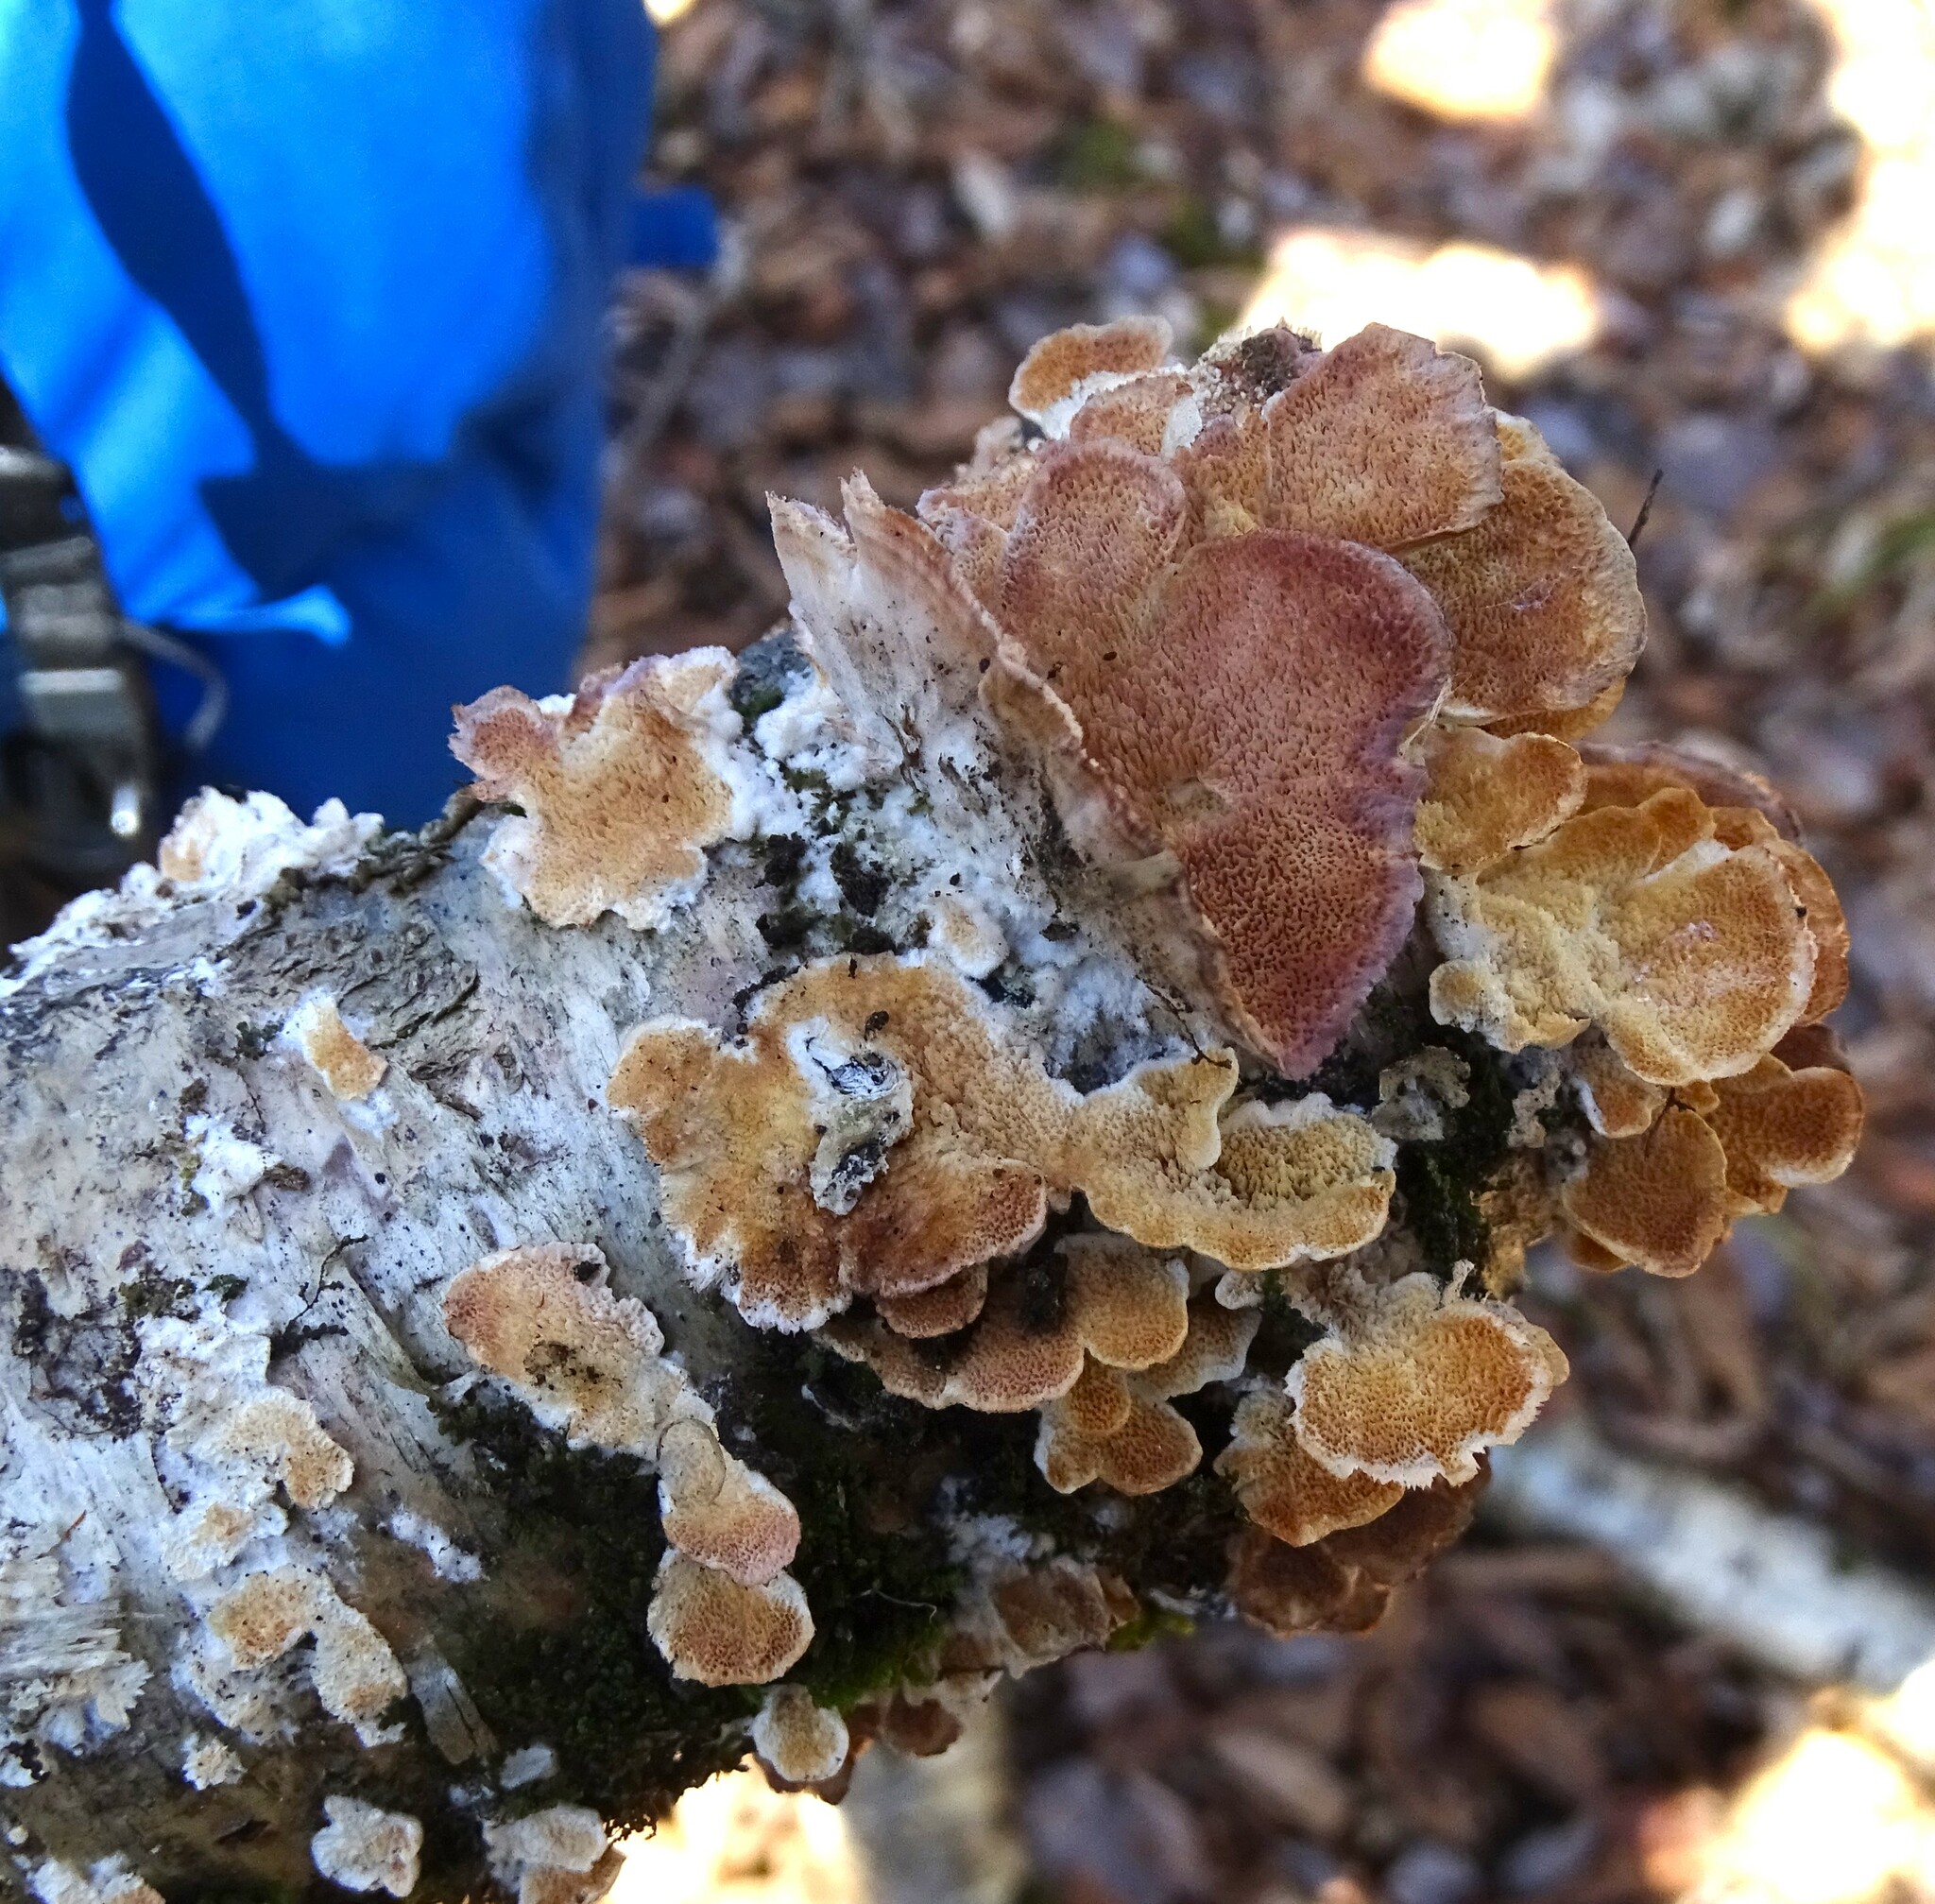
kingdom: Fungi
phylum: Basidiomycota
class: Agaricomycetes
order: Hymenochaetales
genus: Trichaptum
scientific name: Trichaptum biforme
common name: Violet-toothed polypore
